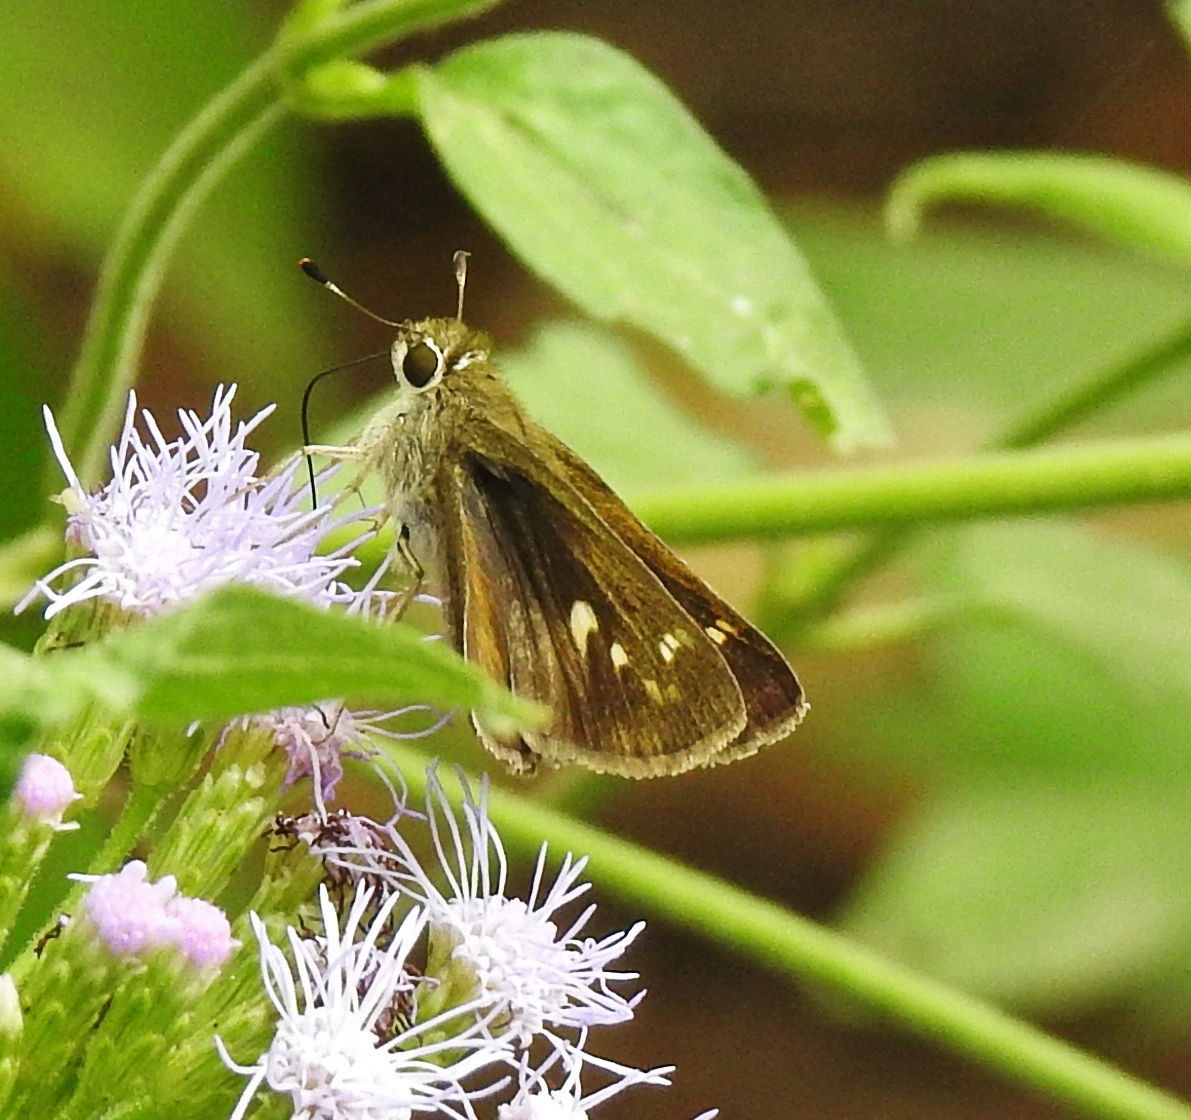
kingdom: Animalia
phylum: Arthropoda
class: Insecta
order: Lepidoptera
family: Hesperiidae
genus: Lerema
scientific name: Lerema accius
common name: Clouded skipper
